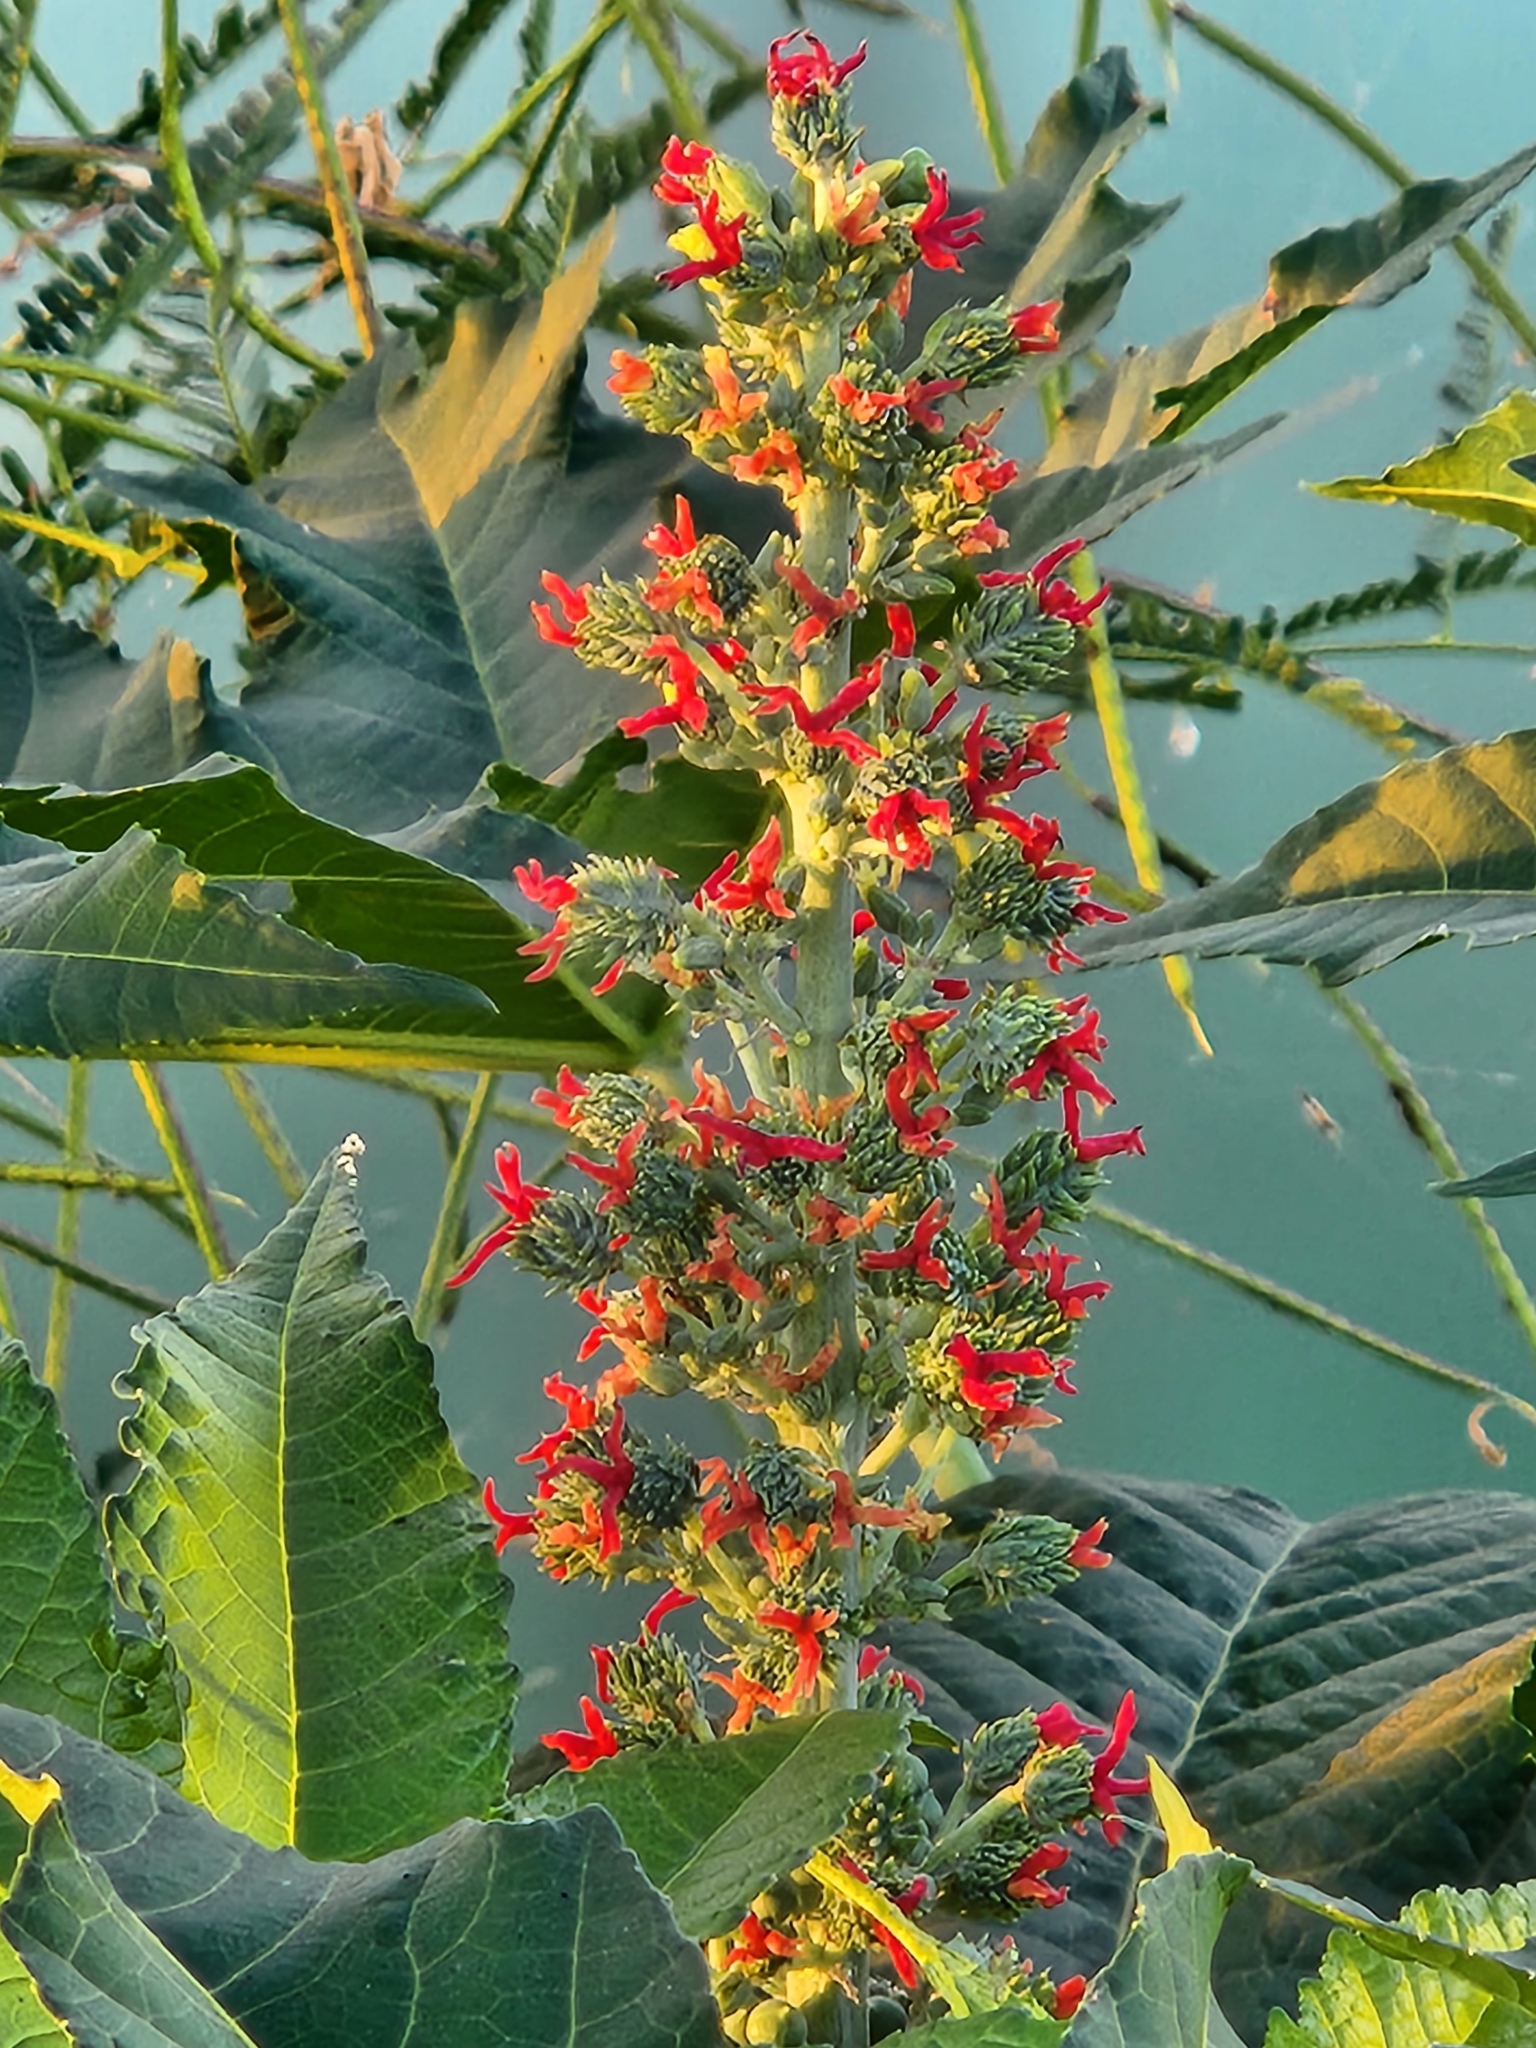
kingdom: Plantae
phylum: Tracheophyta
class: Magnoliopsida
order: Malpighiales
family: Euphorbiaceae
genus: Ricinus
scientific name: Ricinus communis
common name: Castor-oil-plant
